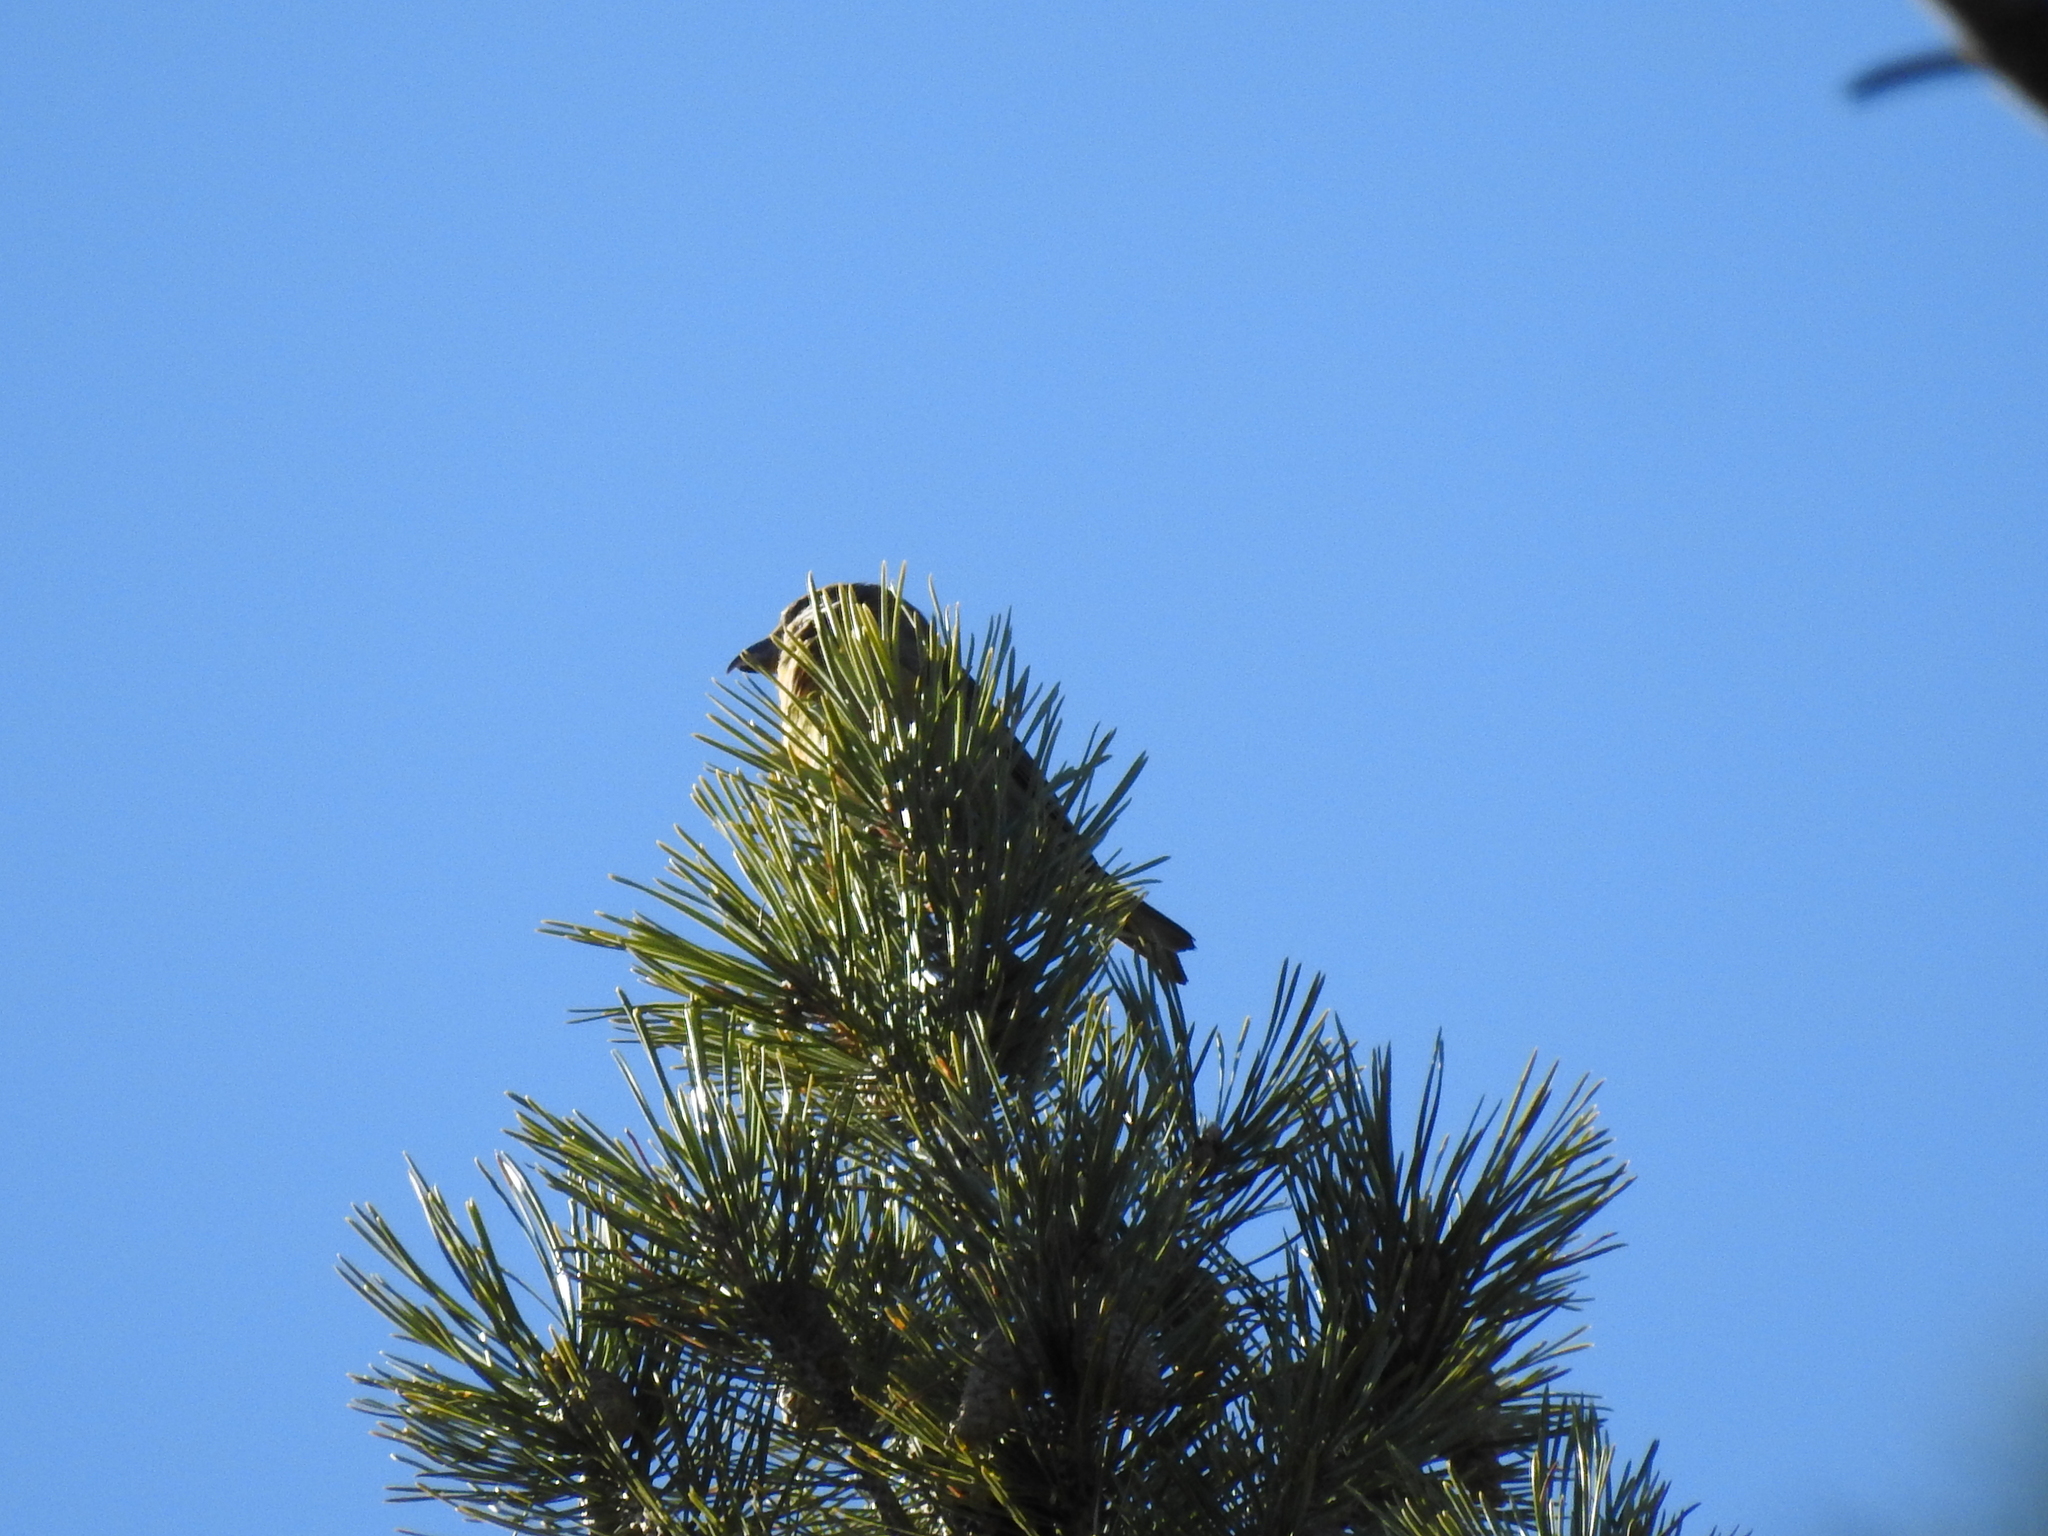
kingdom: Animalia
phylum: Chordata
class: Aves
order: Passeriformes
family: Fringillidae
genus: Loxia
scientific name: Loxia curvirostra
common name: Red crossbill
